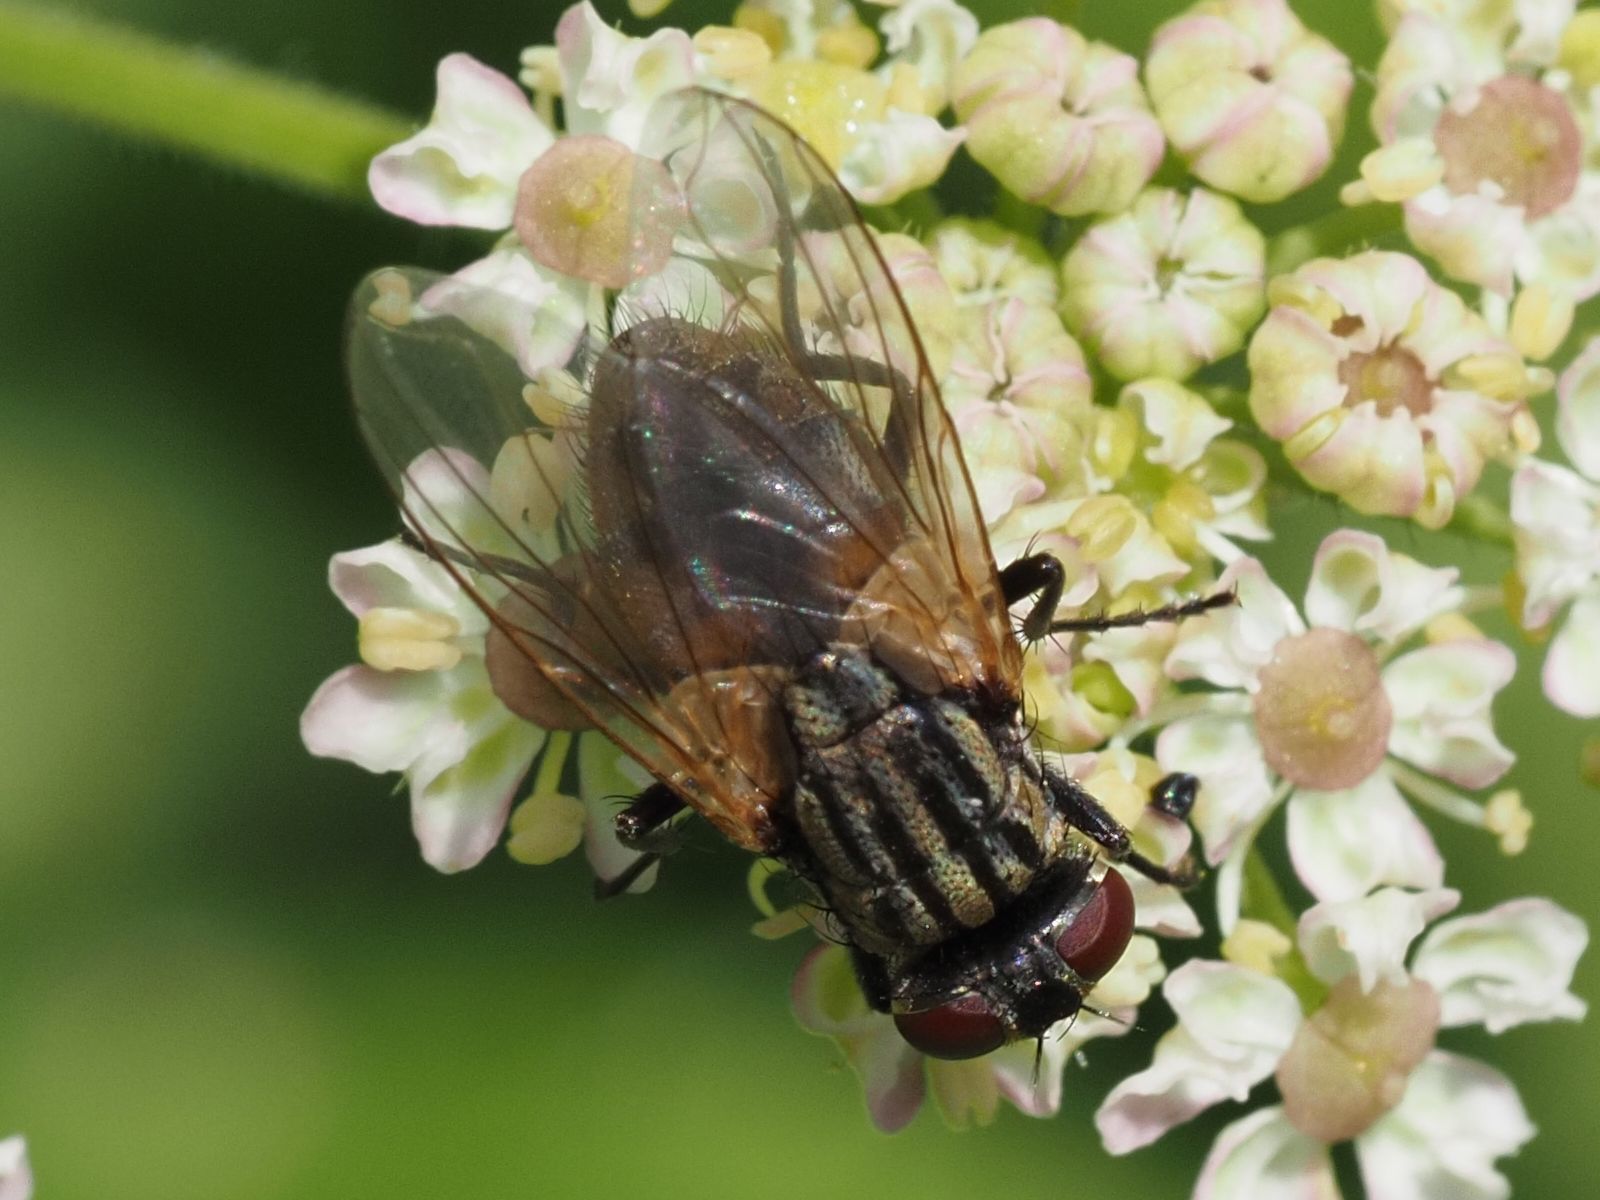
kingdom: Animalia
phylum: Arthropoda
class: Insecta
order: Diptera
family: Muscidae
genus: Musca
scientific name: Musca domestica
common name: House fly
